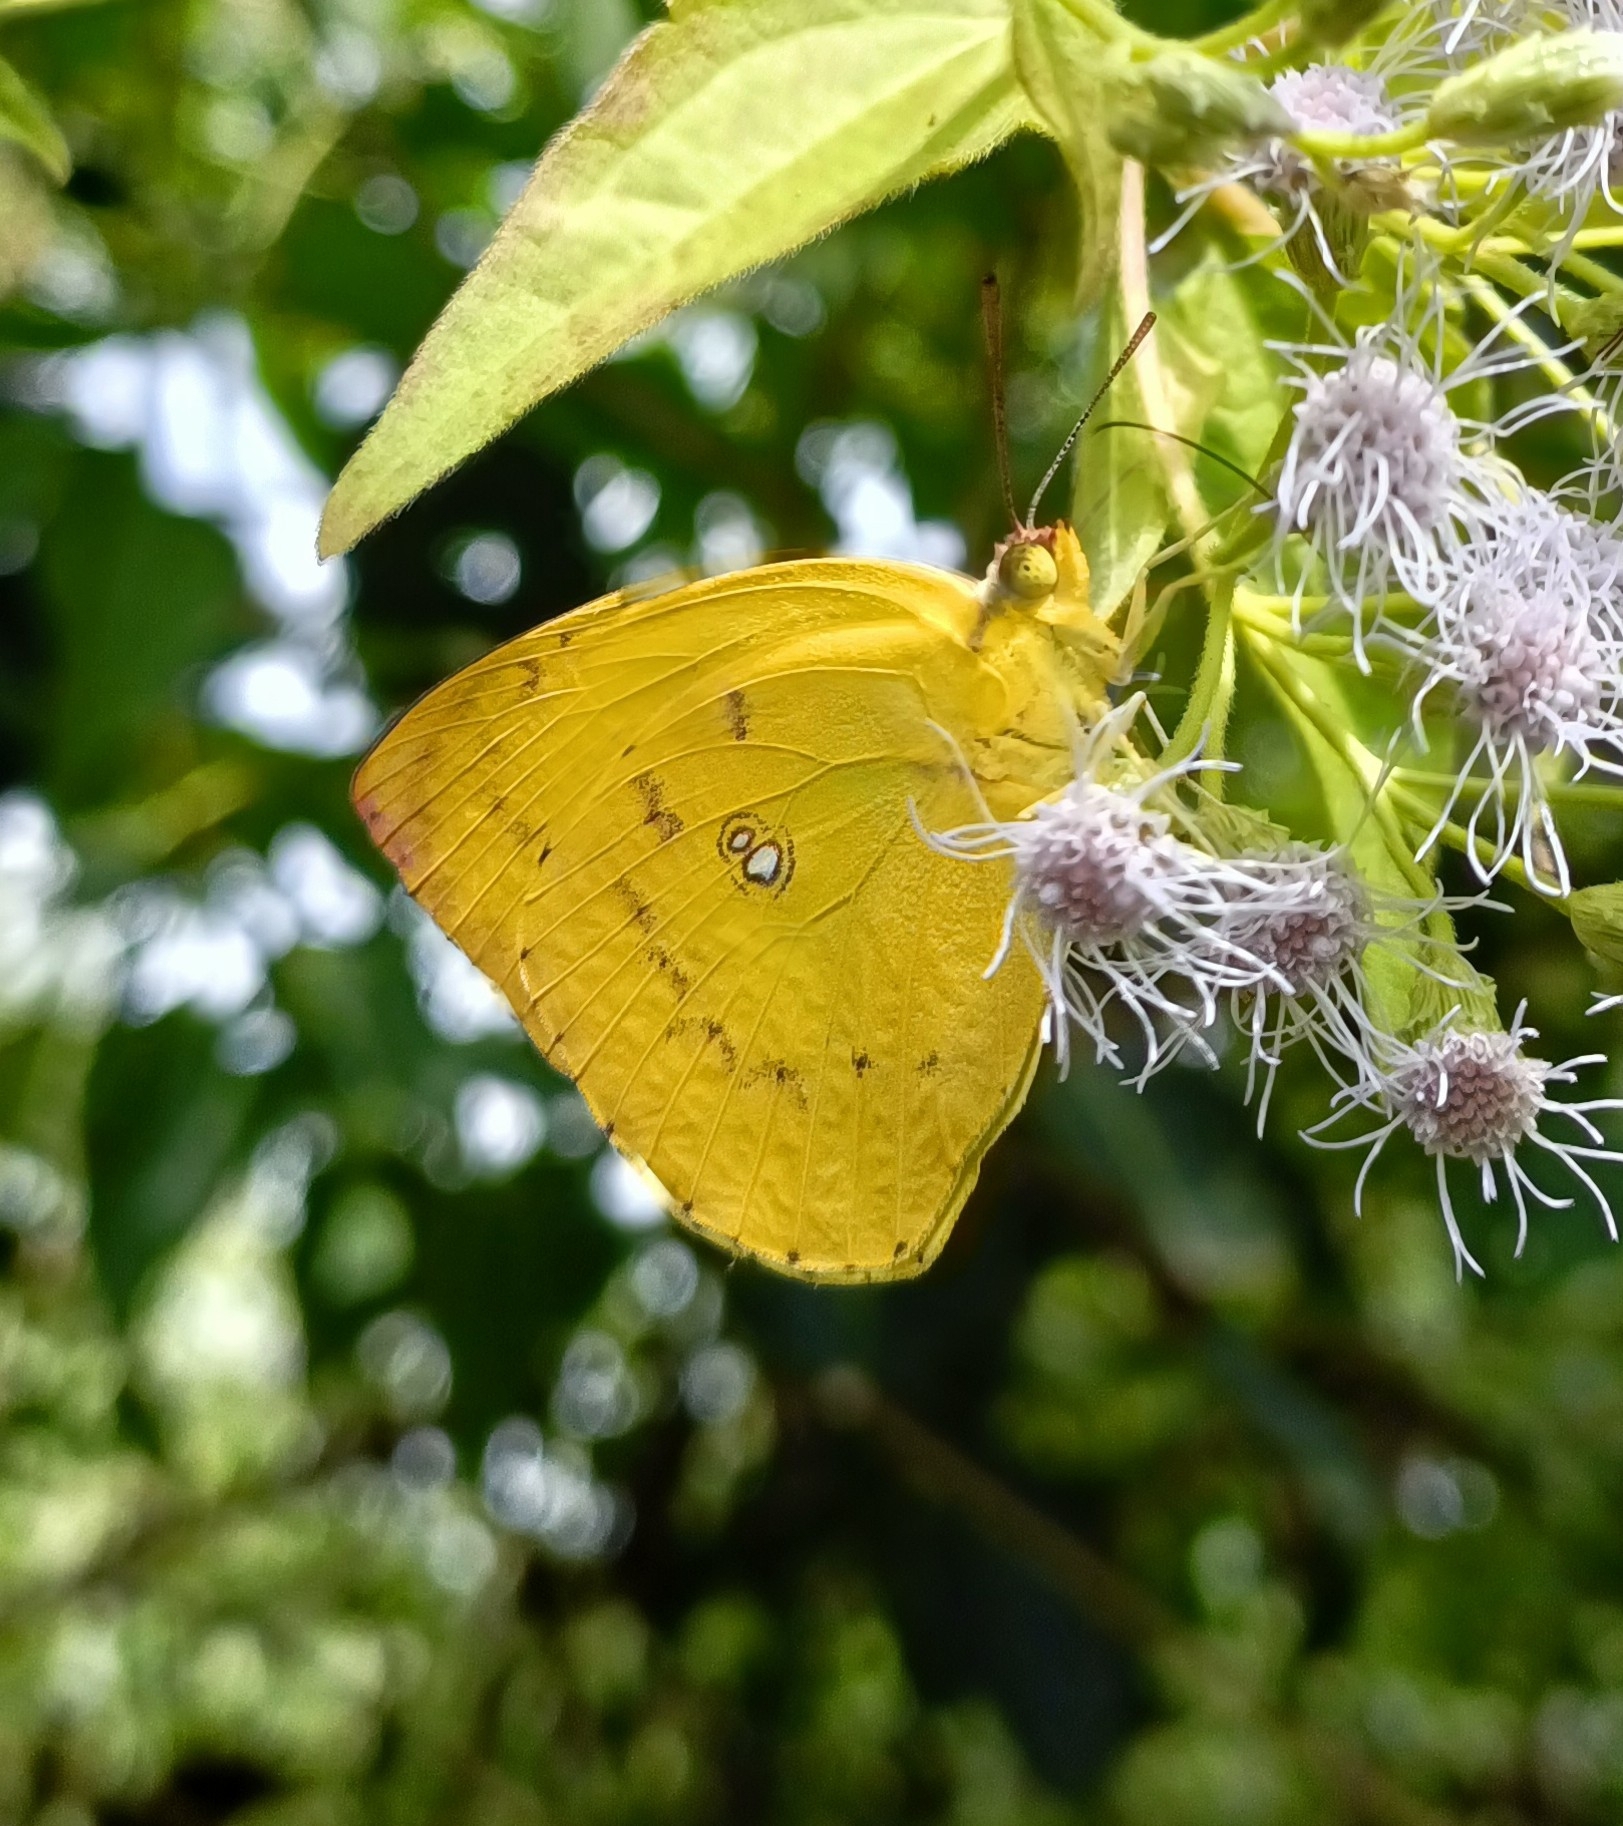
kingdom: Animalia
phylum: Arthropoda
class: Insecta
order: Lepidoptera
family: Pieridae
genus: Catopsilia
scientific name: Catopsilia pomona
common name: Common emigrant
